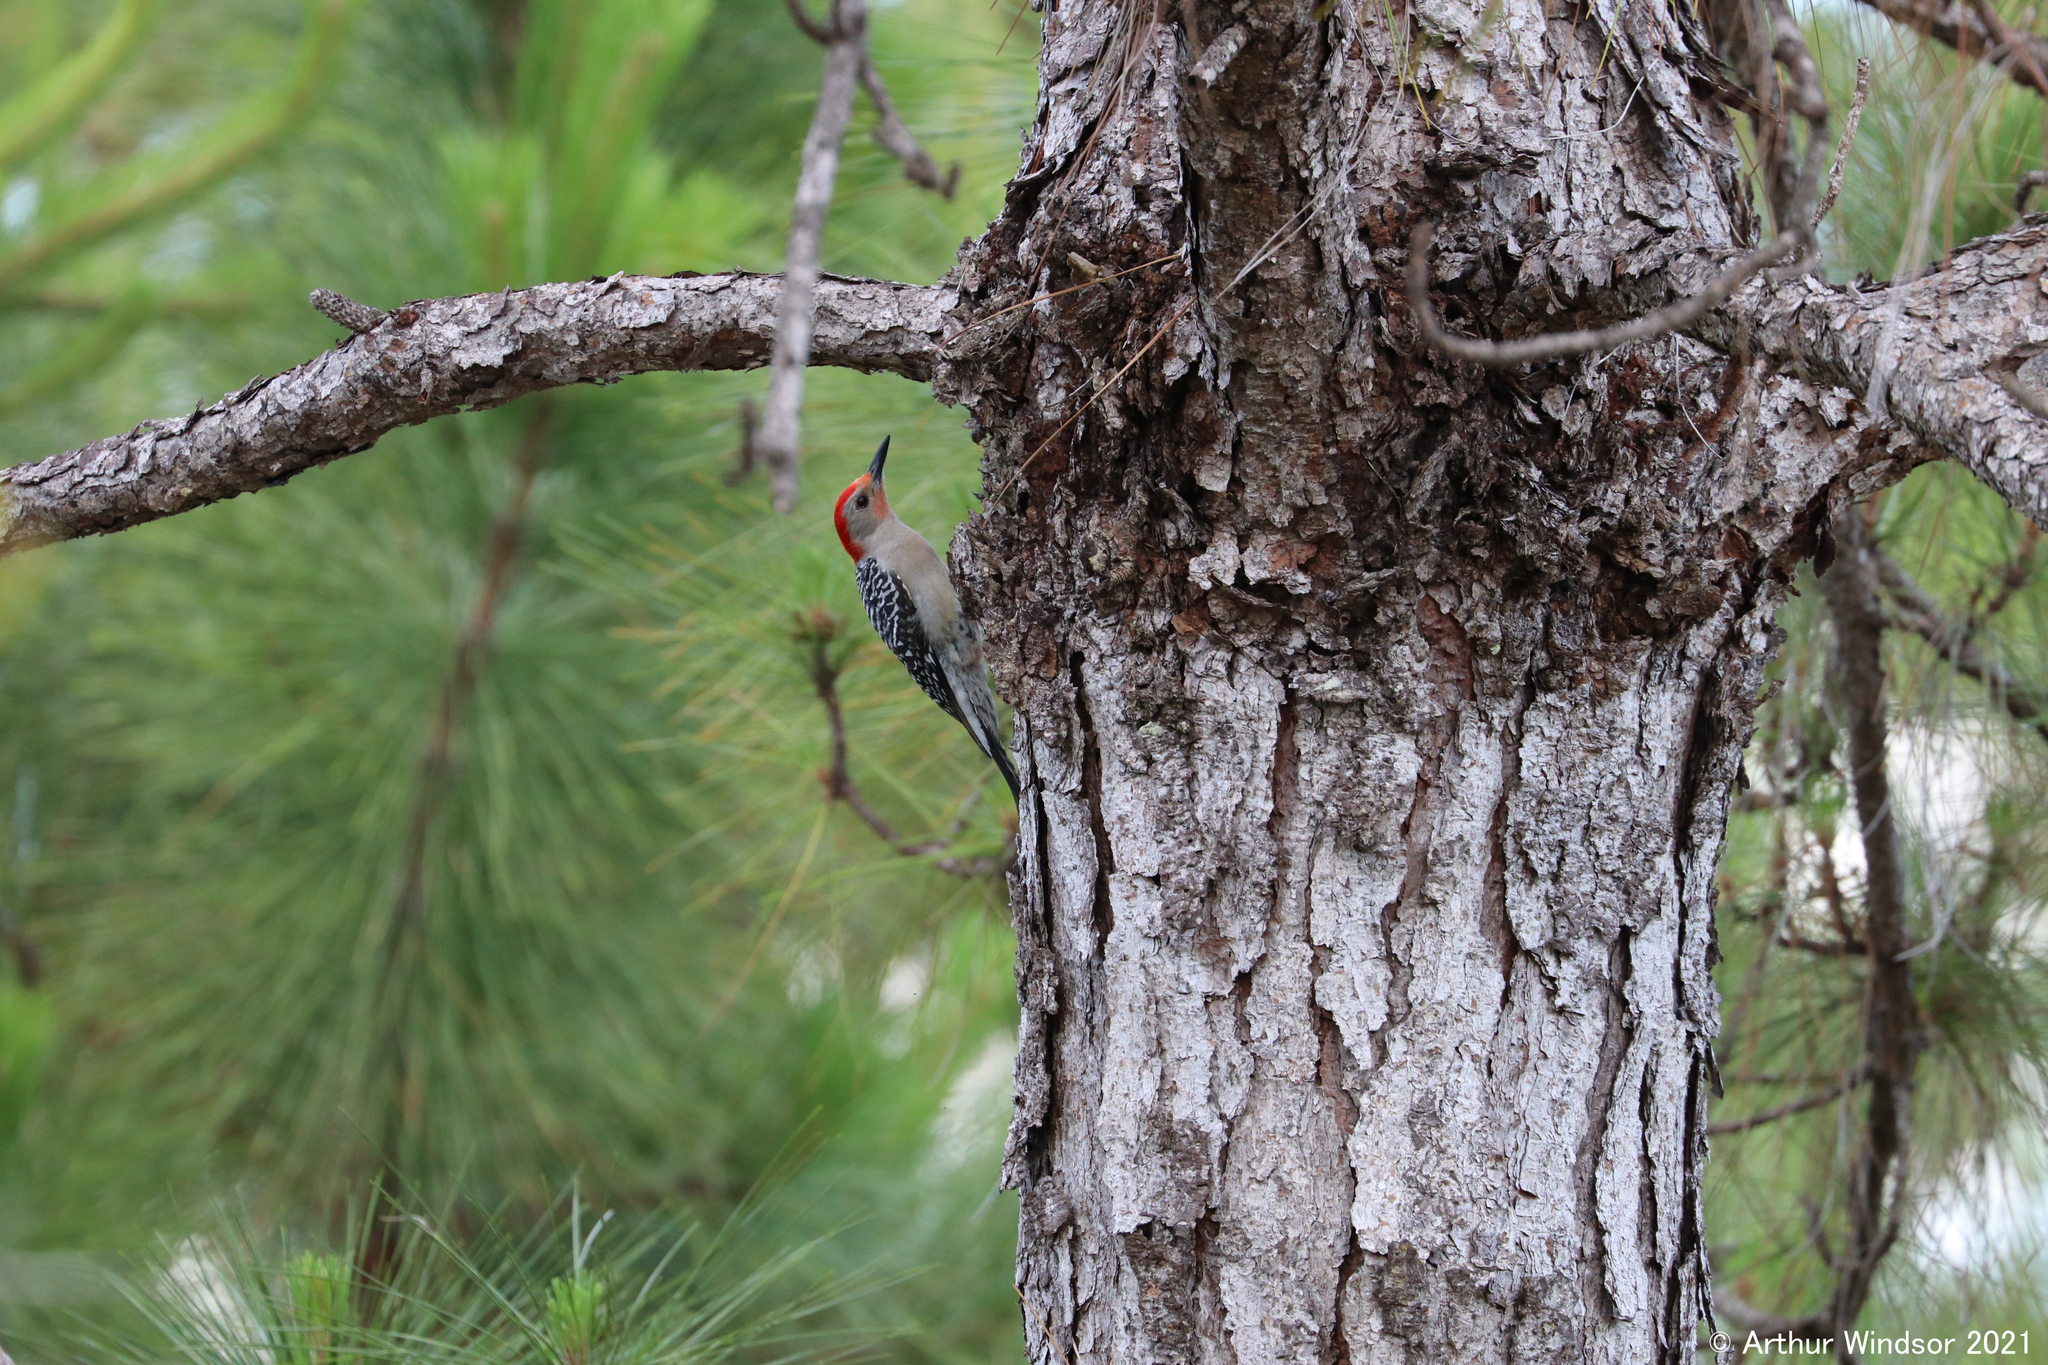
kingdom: Animalia
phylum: Chordata
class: Aves
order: Piciformes
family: Picidae
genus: Melanerpes
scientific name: Melanerpes carolinus
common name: Red-bellied woodpecker
